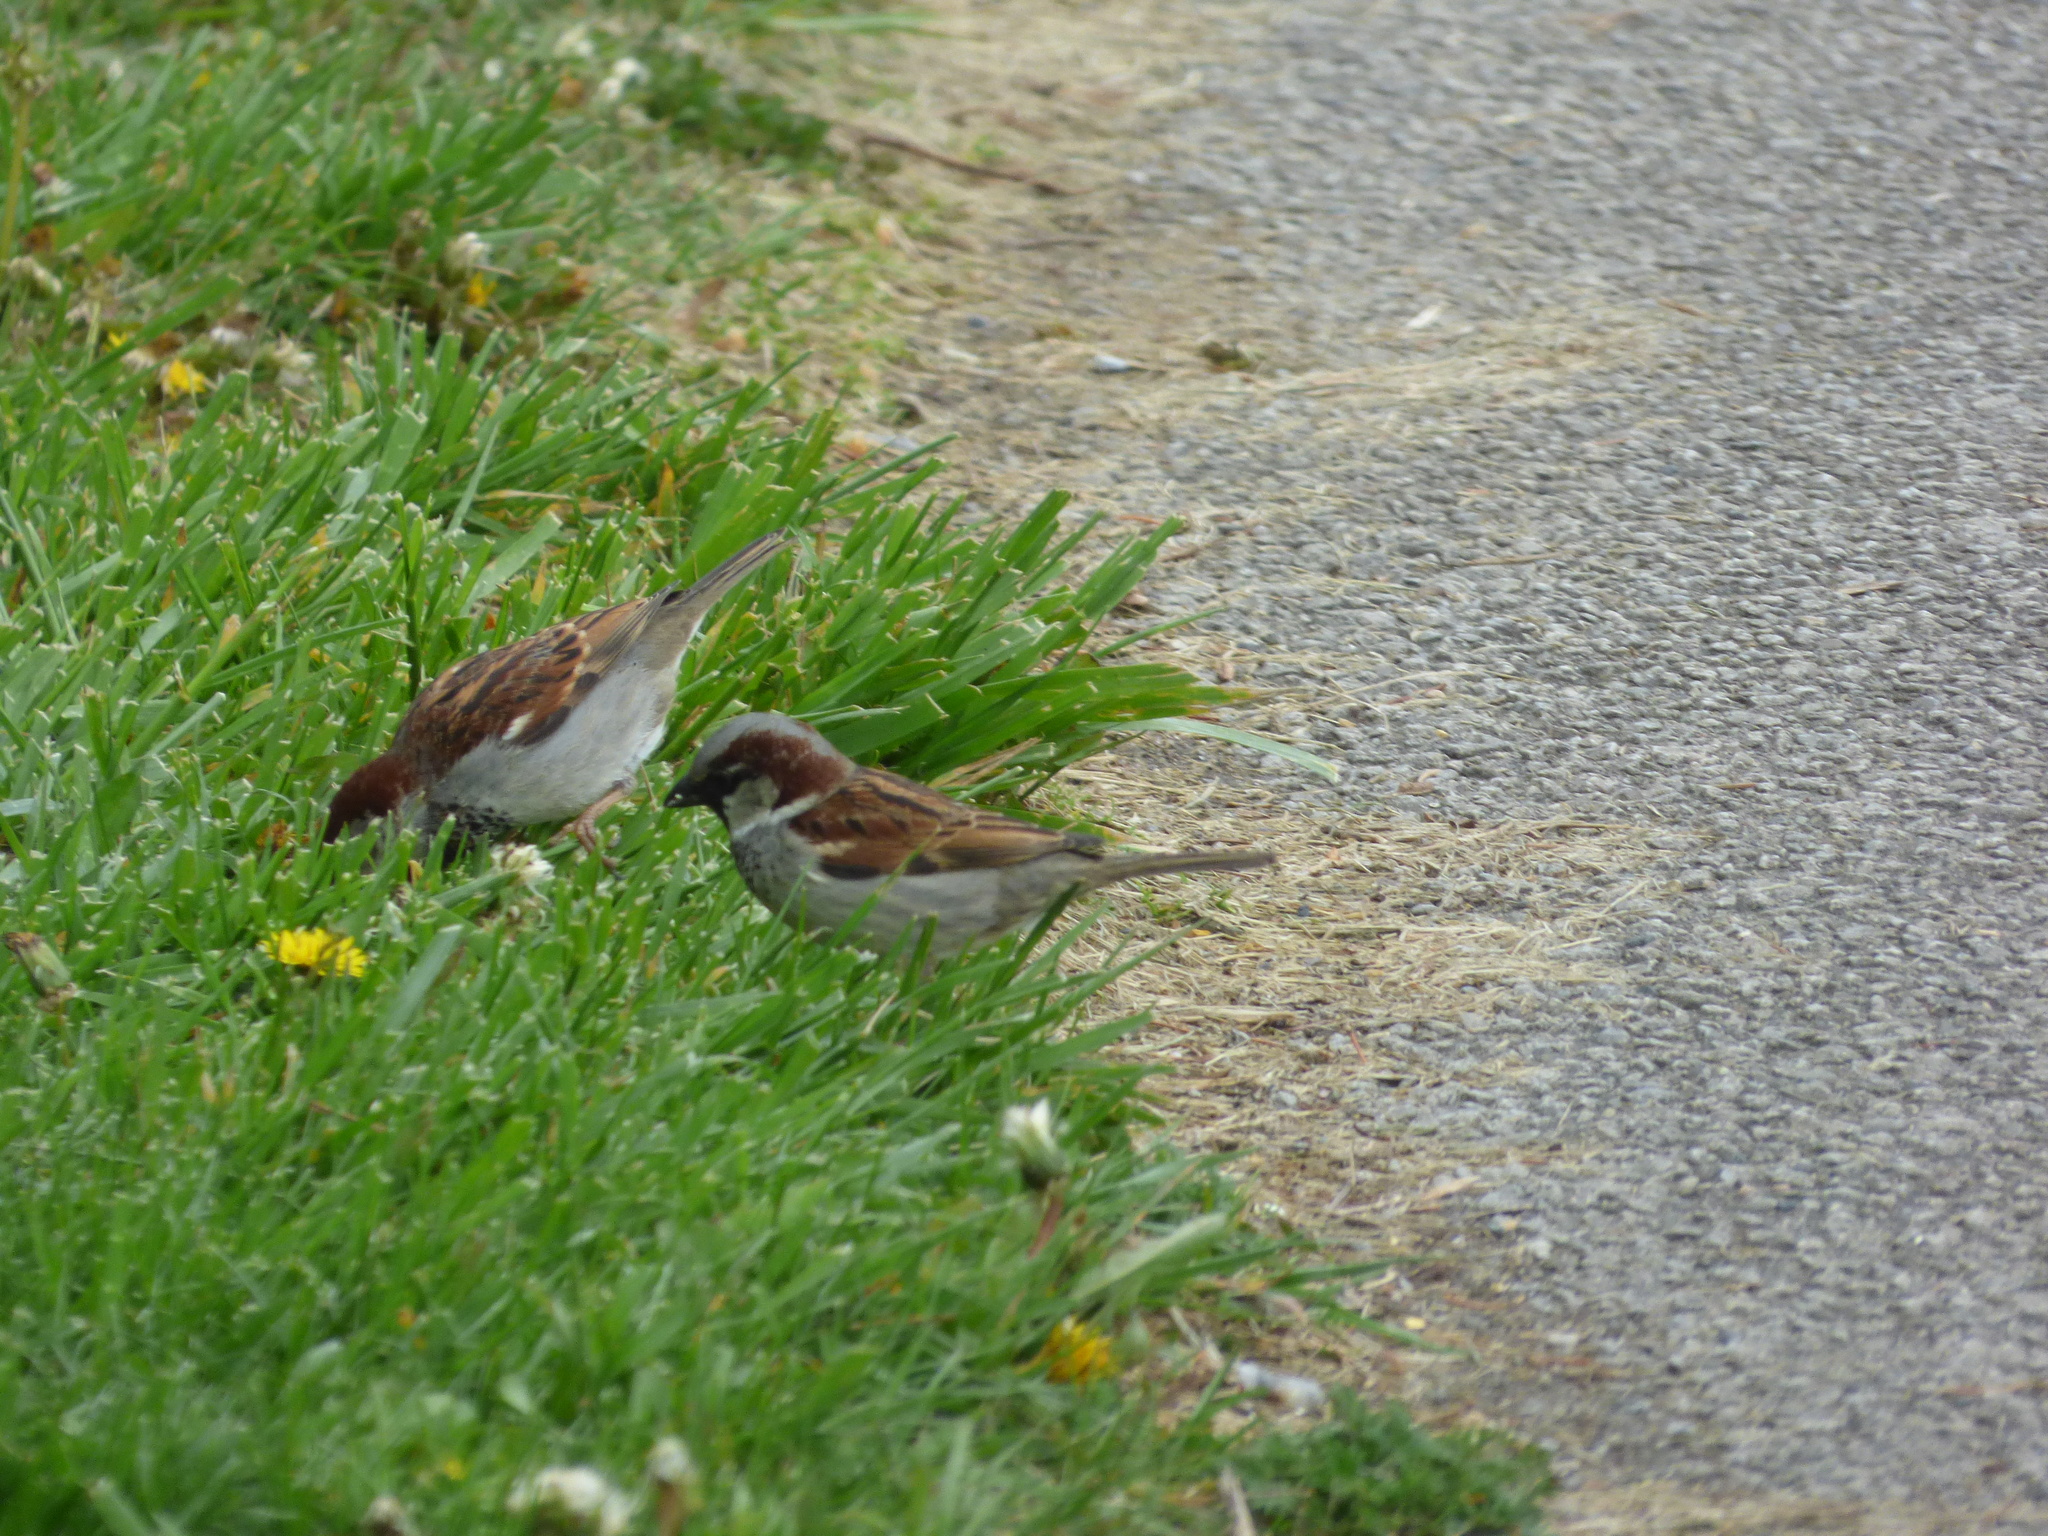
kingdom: Animalia
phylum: Chordata
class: Aves
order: Passeriformes
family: Passeridae
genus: Passer
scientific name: Passer domesticus
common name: House sparrow
